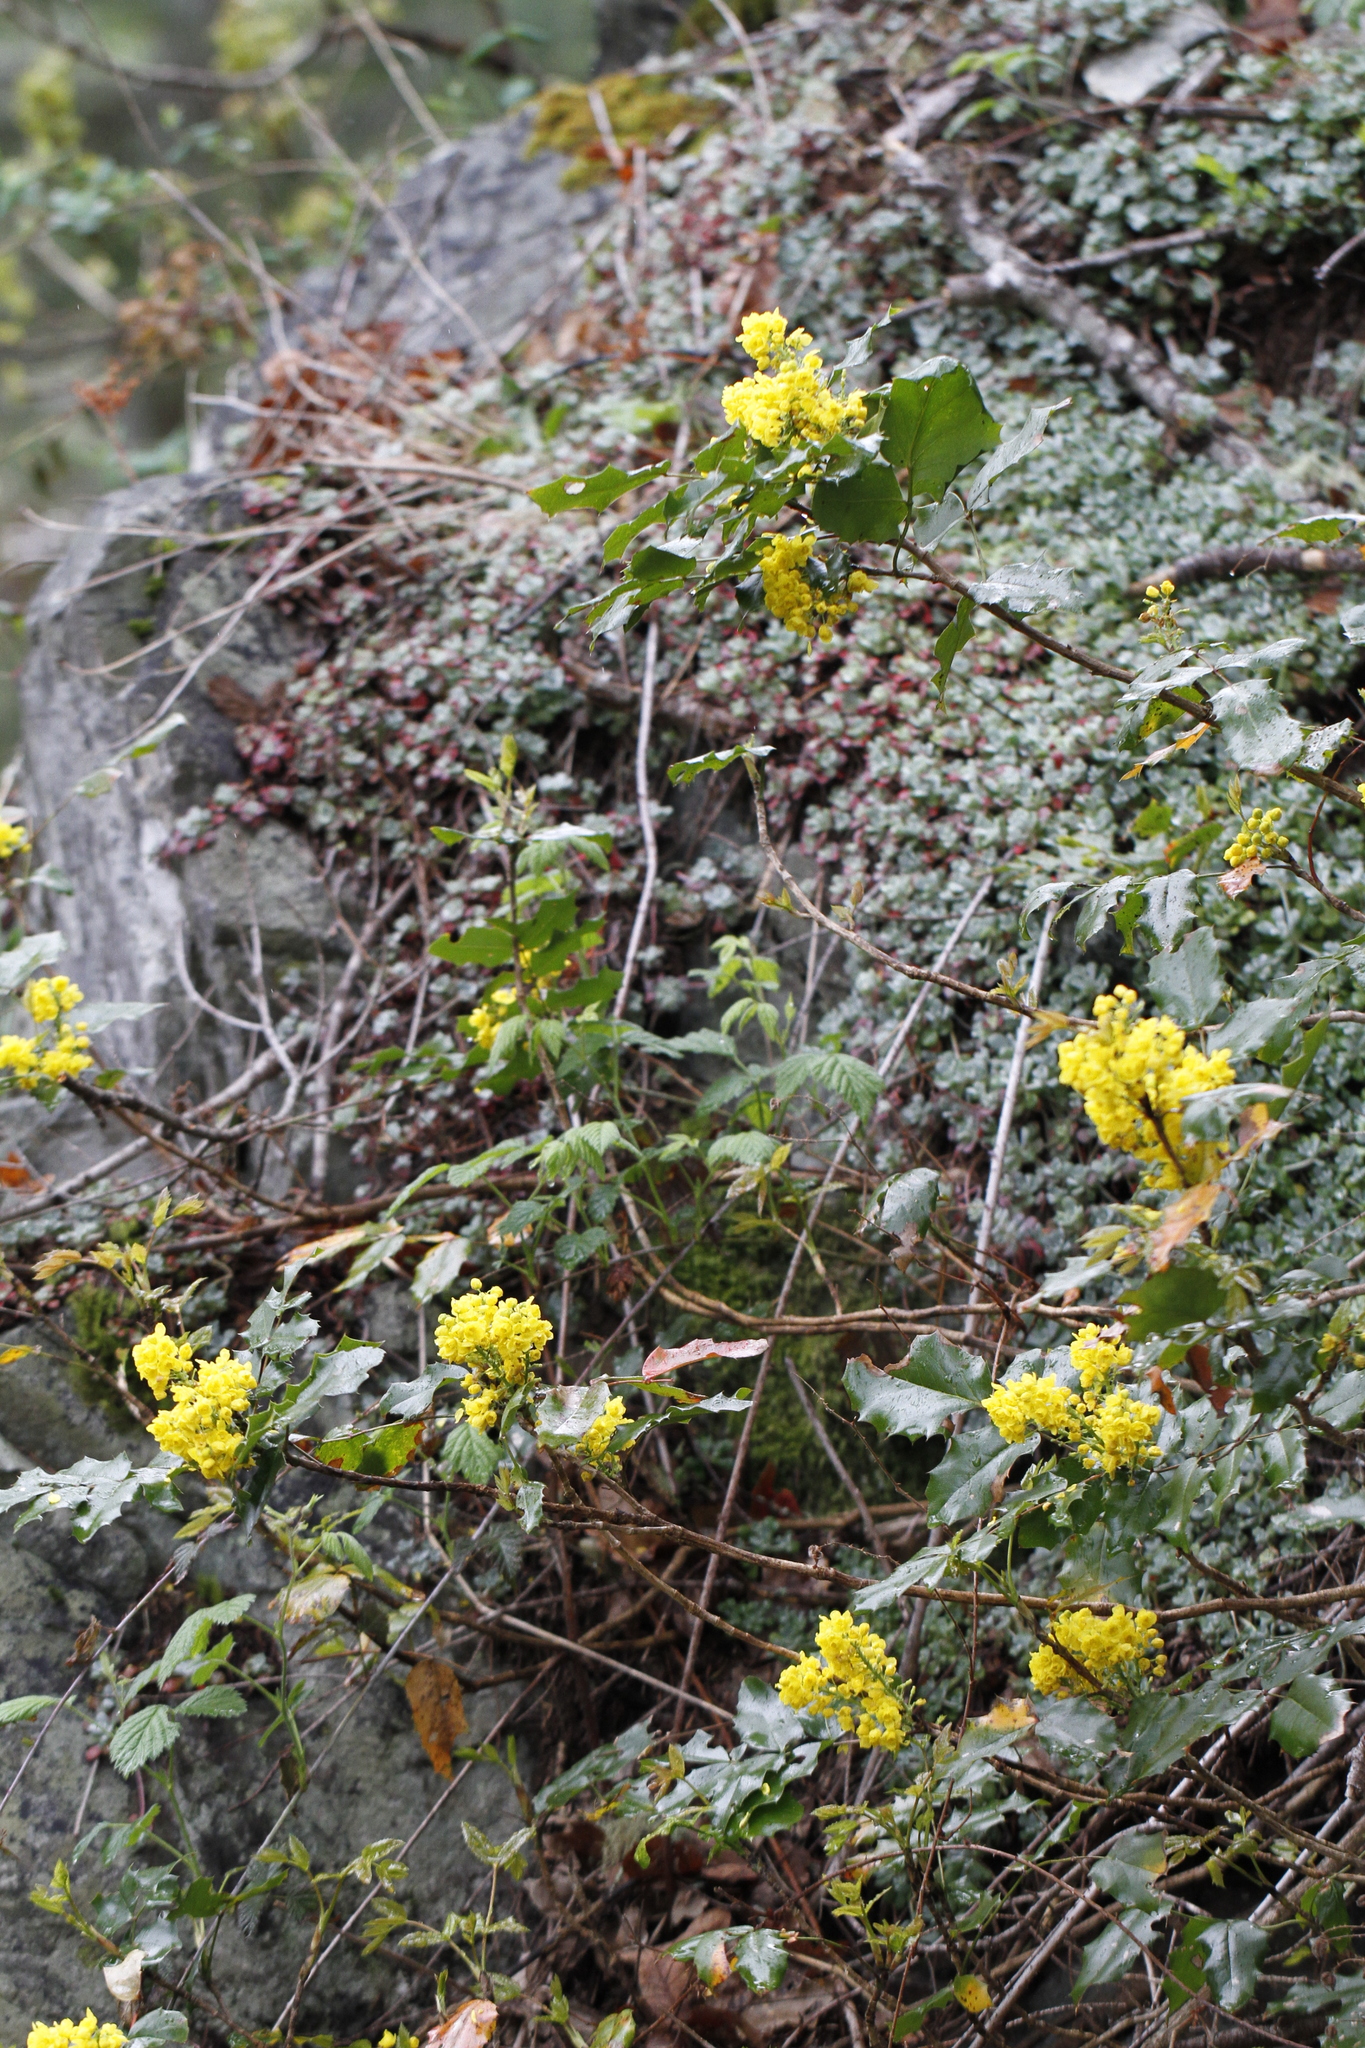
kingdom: Plantae
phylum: Tracheophyta
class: Magnoliopsida
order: Ranunculales
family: Berberidaceae
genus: Mahonia
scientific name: Mahonia aquifolium
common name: Oregon-grape
